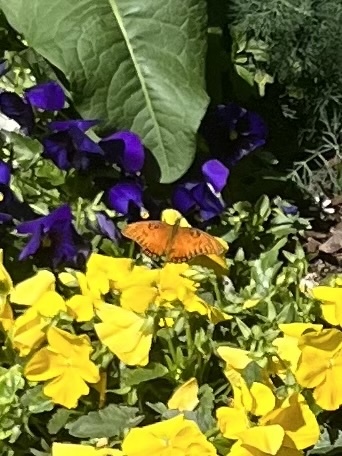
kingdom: Animalia
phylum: Arthropoda
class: Insecta
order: Lepidoptera
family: Nymphalidae
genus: Dione
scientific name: Dione vanillae
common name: Gulf fritillary
